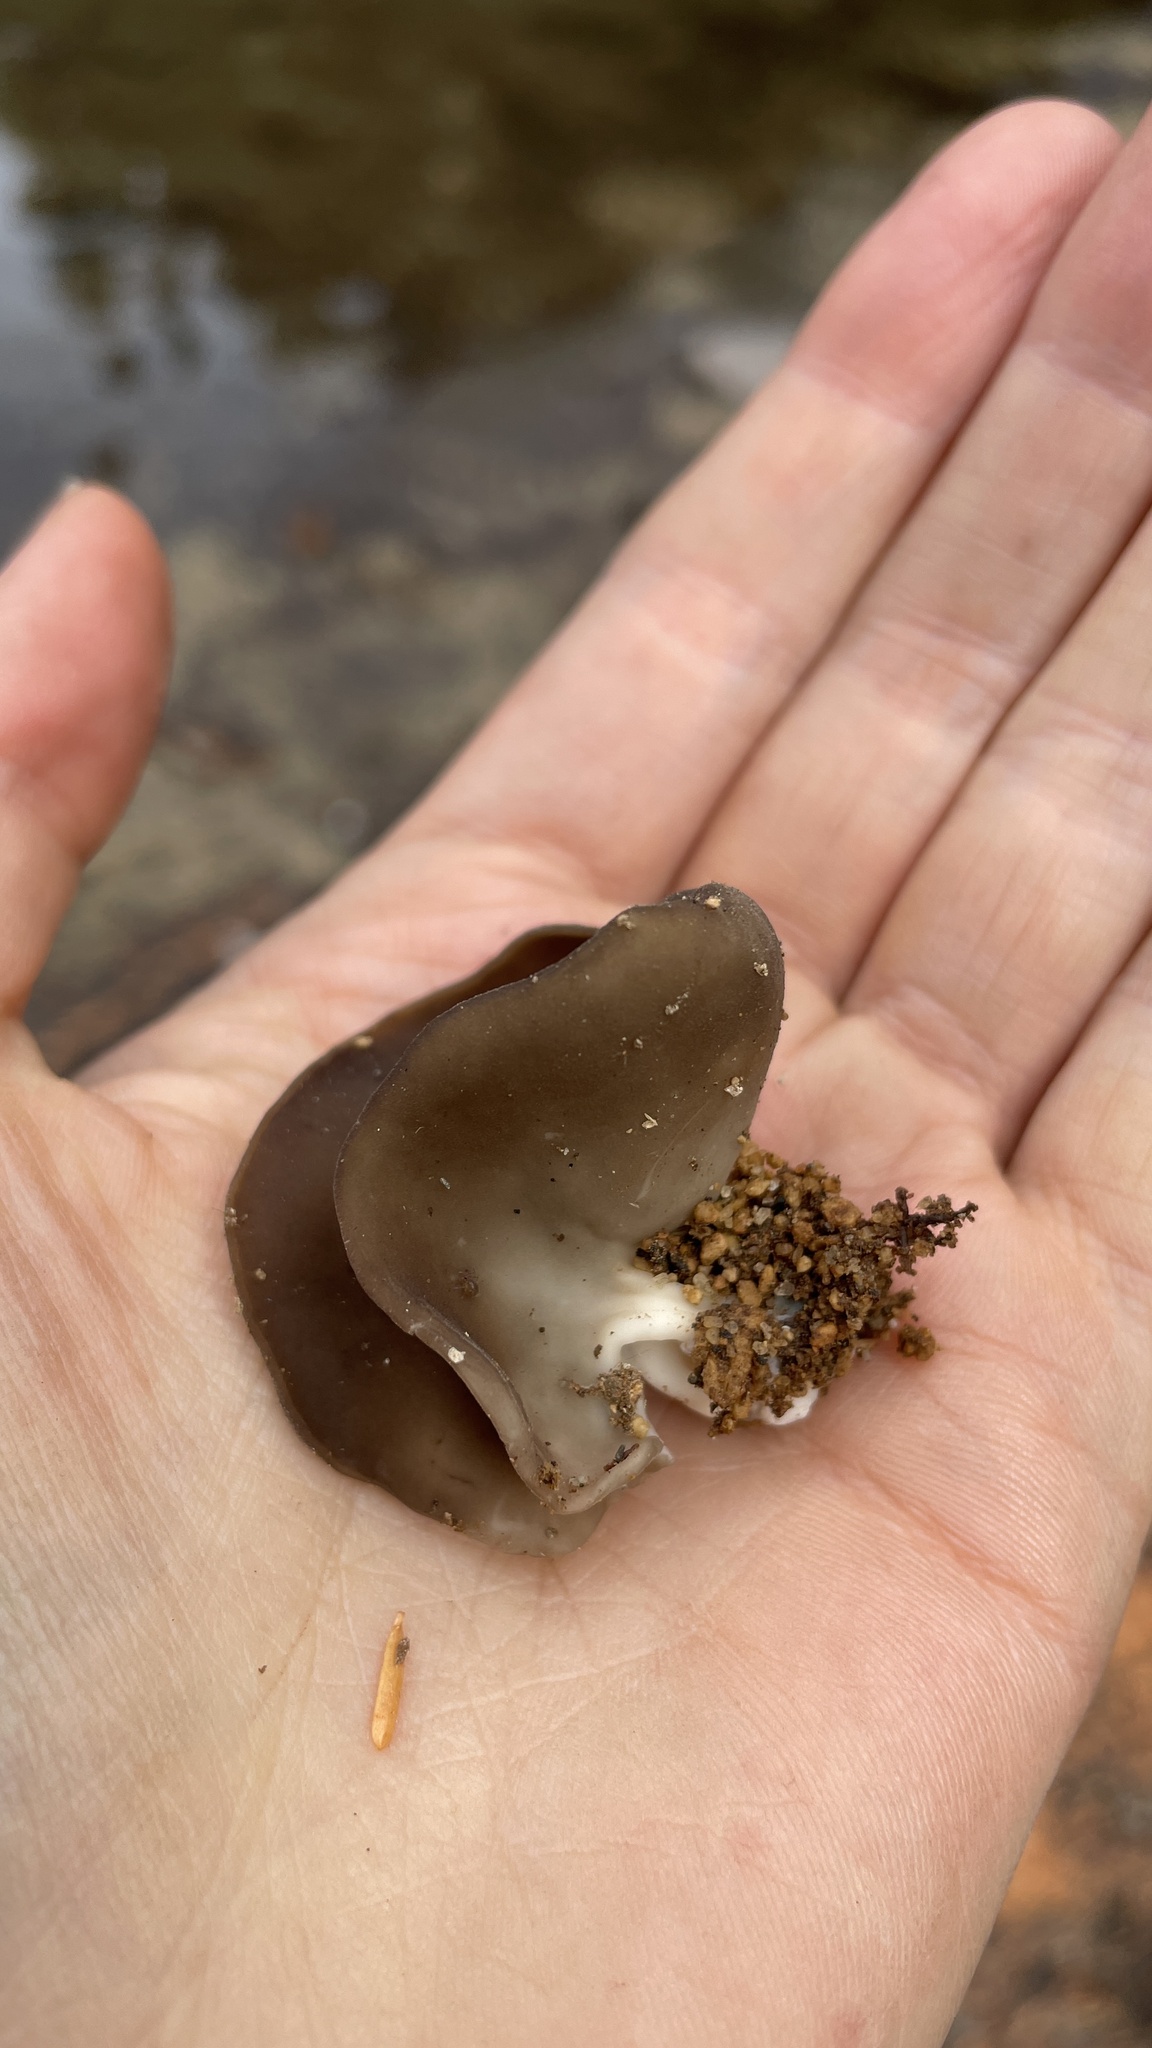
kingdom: Fungi
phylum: Ascomycota
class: Pezizomycetes
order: Pezizales
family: Helvellaceae
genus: Dissingia
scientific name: Dissingia crassitunicata
